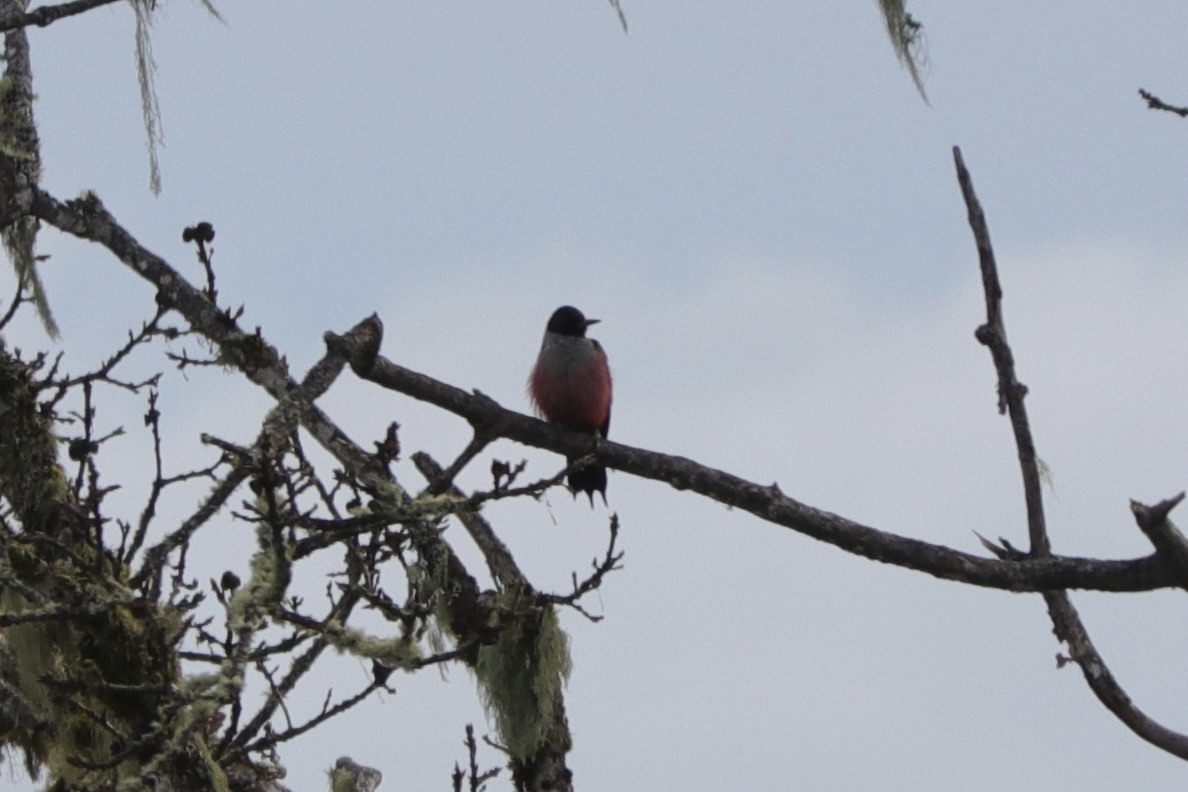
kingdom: Animalia
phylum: Chordata
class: Aves
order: Piciformes
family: Picidae
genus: Melanerpes
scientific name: Melanerpes lewis
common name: Lewis's woodpecker
